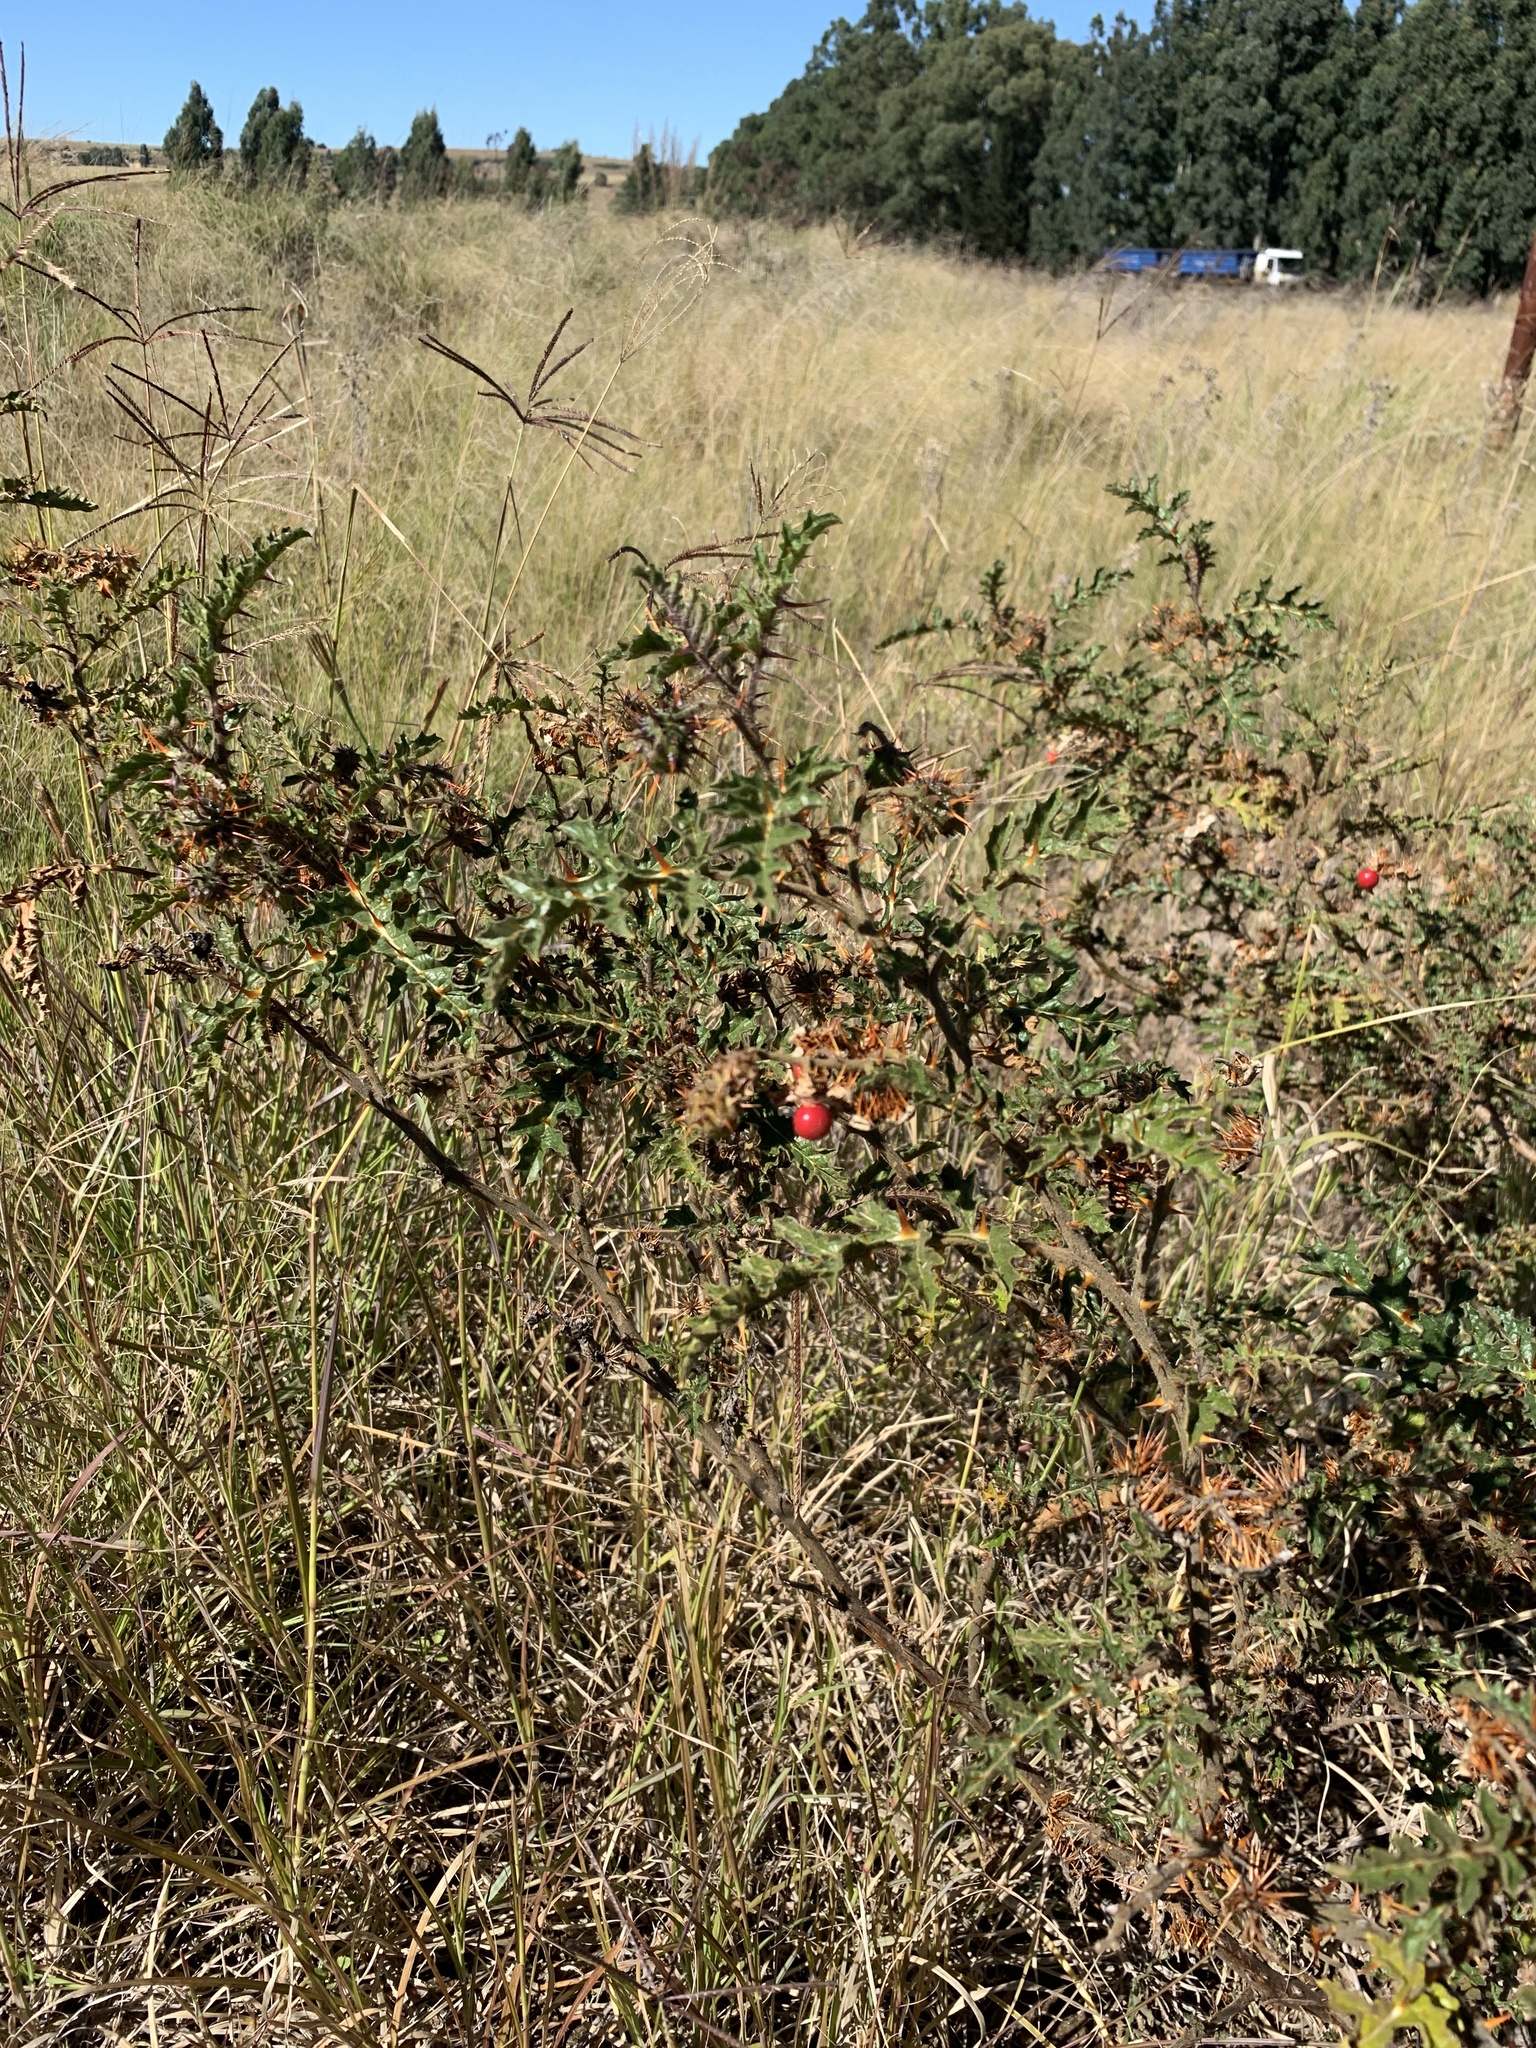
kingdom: Plantae
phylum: Tracheophyta
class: Magnoliopsida
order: Solanales
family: Solanaceae
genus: Solanum
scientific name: Solanum sisymbriifolium
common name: Red buffalo-bur
